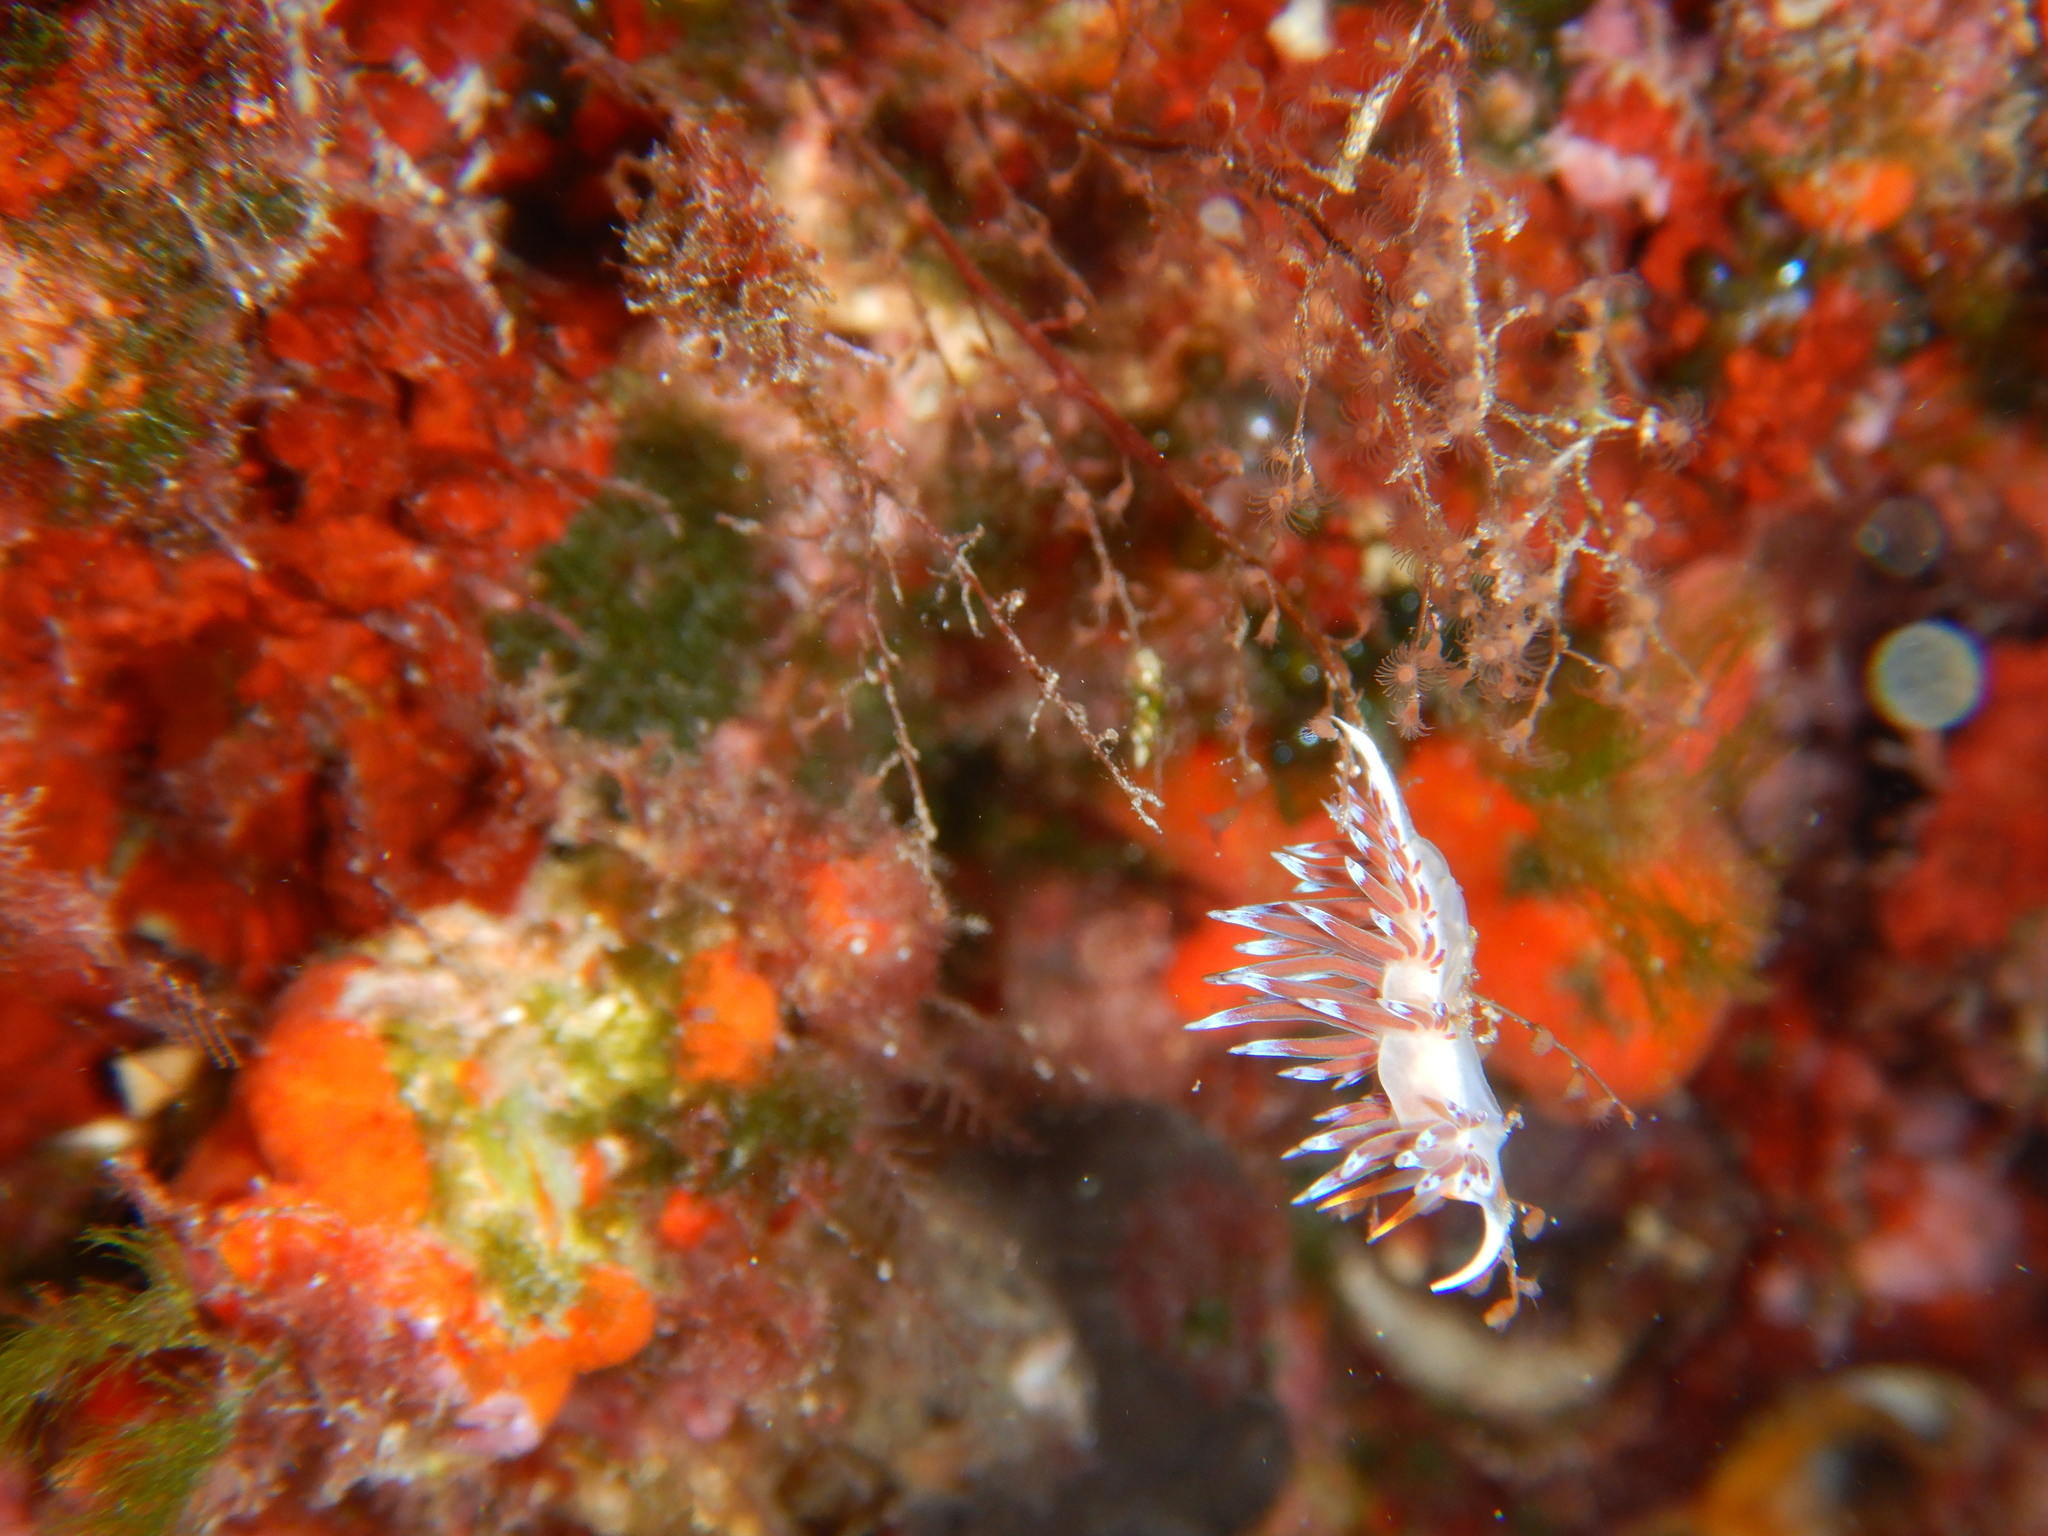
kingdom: Animalia
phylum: Mollusca
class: Gastropoda
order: Nudibranchia
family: Facelinidae
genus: Cratena
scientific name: Cratena peregrina
